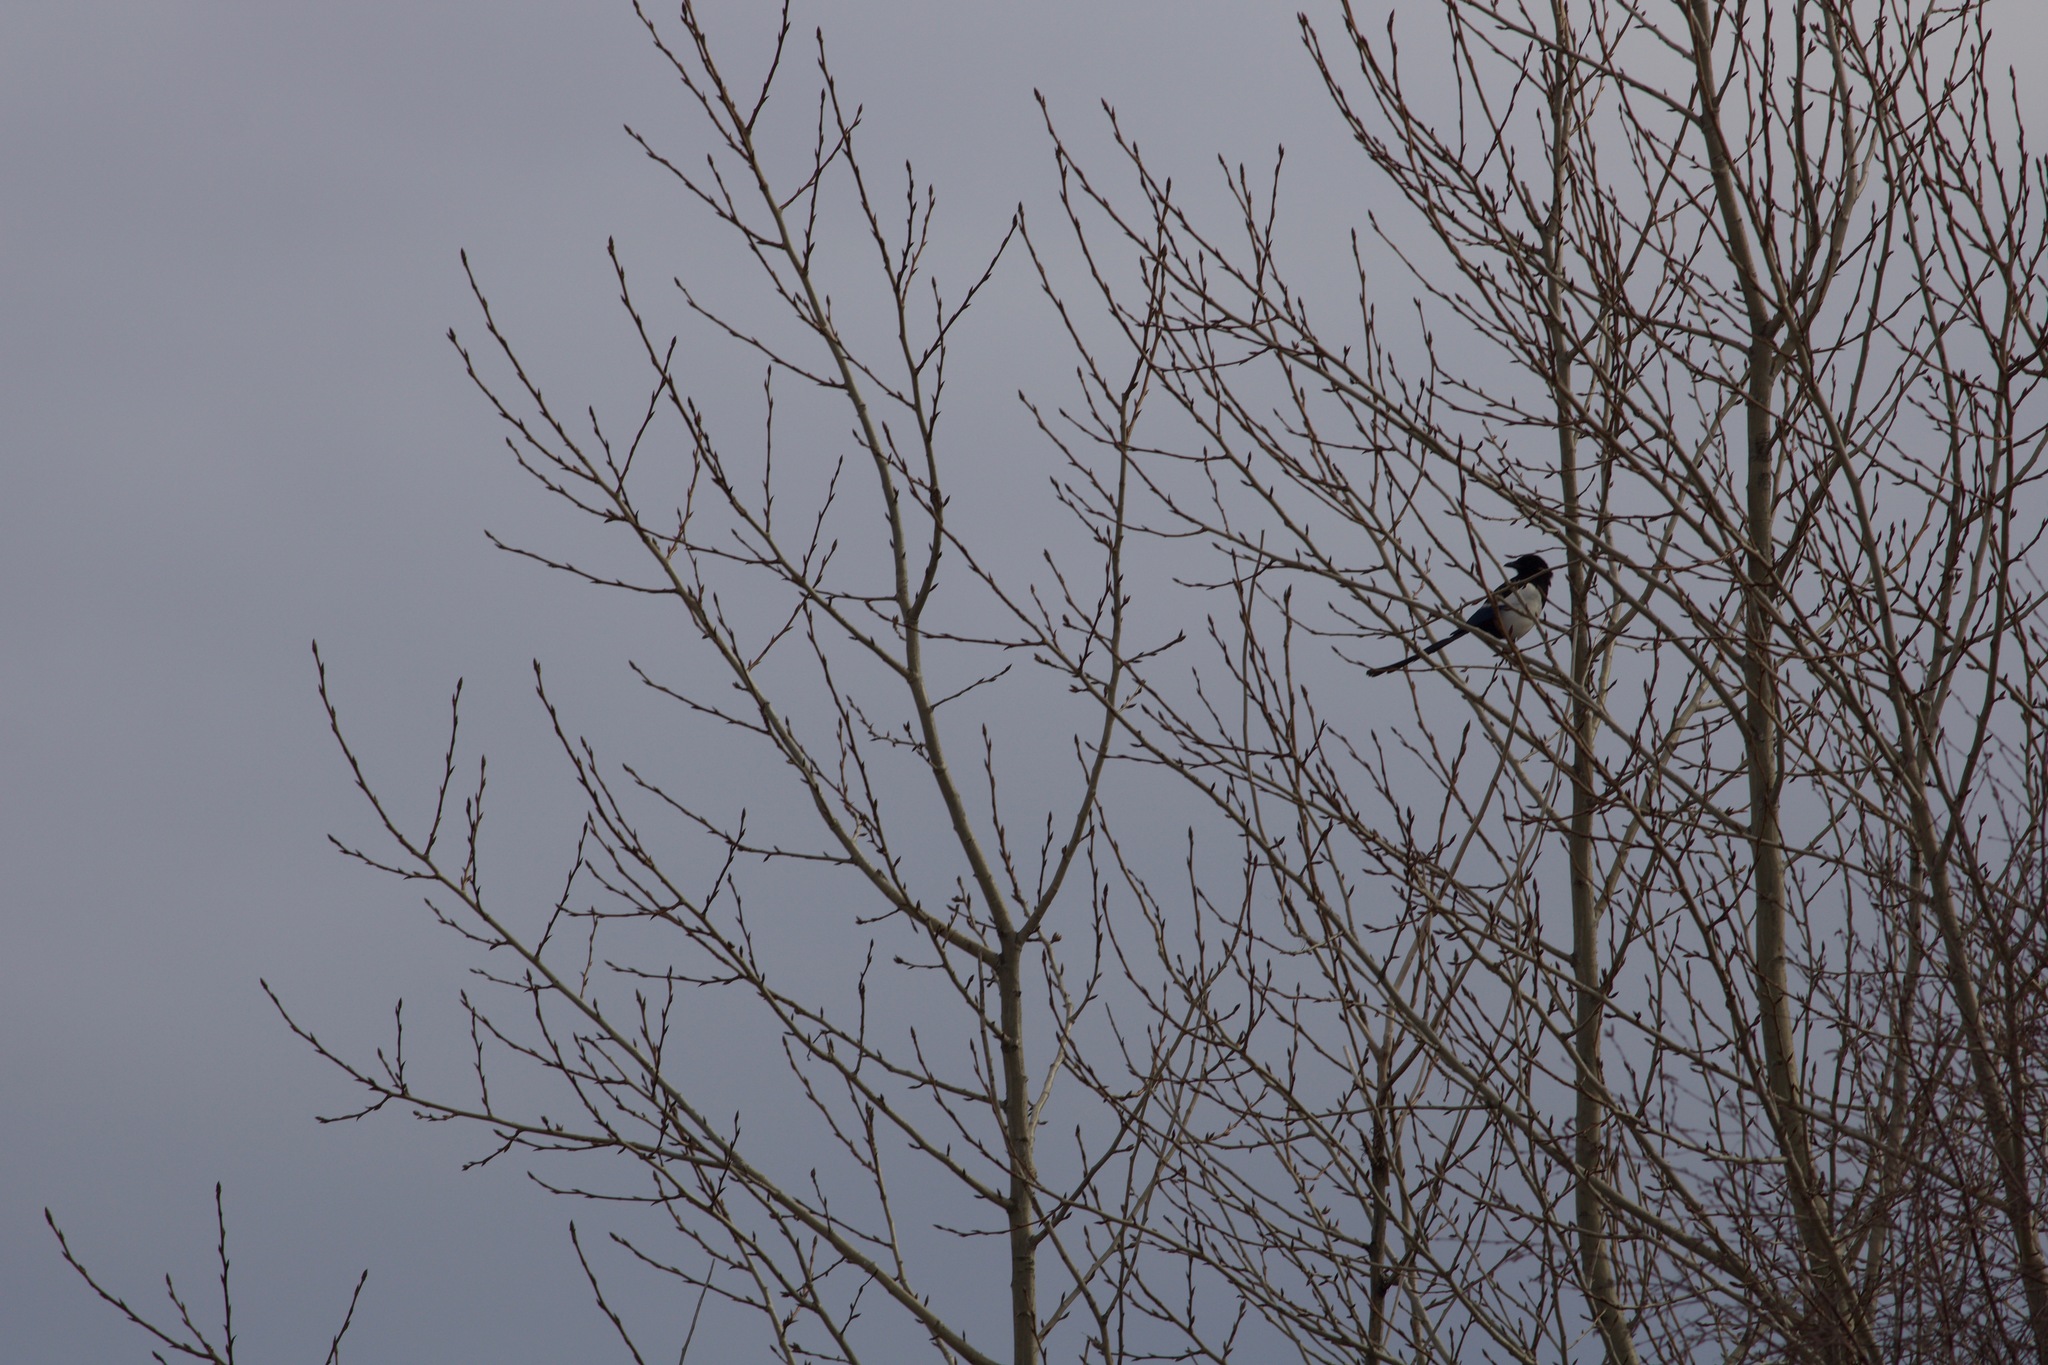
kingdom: Animalia
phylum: Chordata
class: Aves
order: Passeriformes
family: Corvidae
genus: Pica
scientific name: Pica pica
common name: Eurasian magpie
